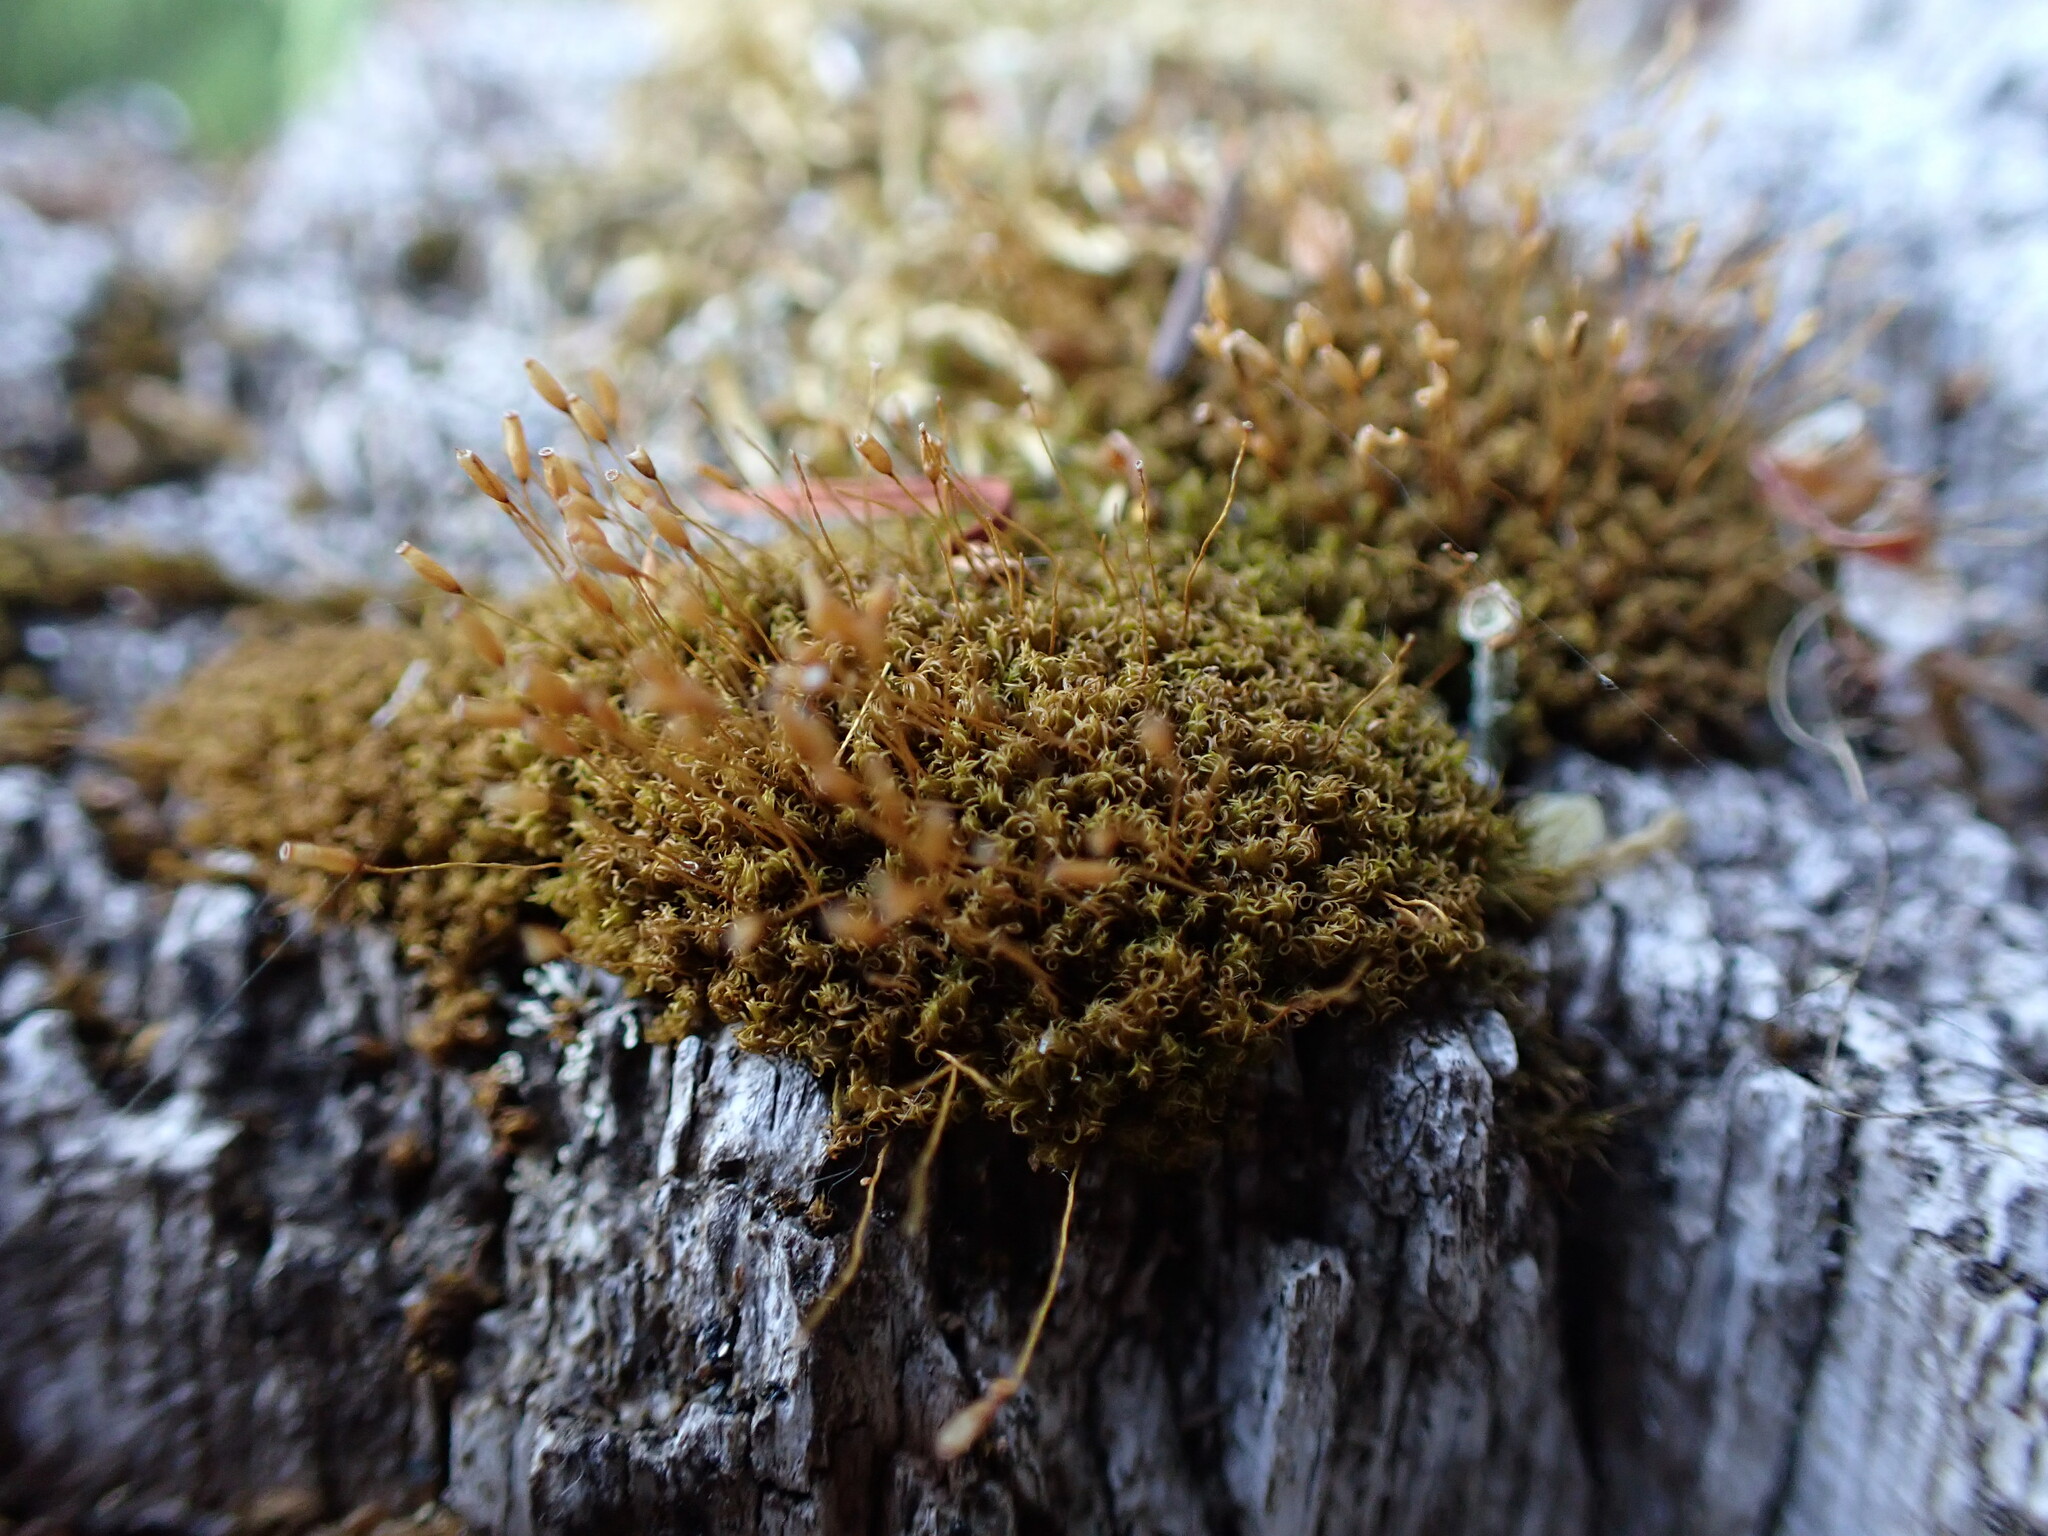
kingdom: Plantae
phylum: Bryophyta
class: Bryopsida
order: Dicranales
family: Rhabdoweisiaceae
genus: Dicranoweisia
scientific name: Dicranoweisia cirrata
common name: Common pincushion
